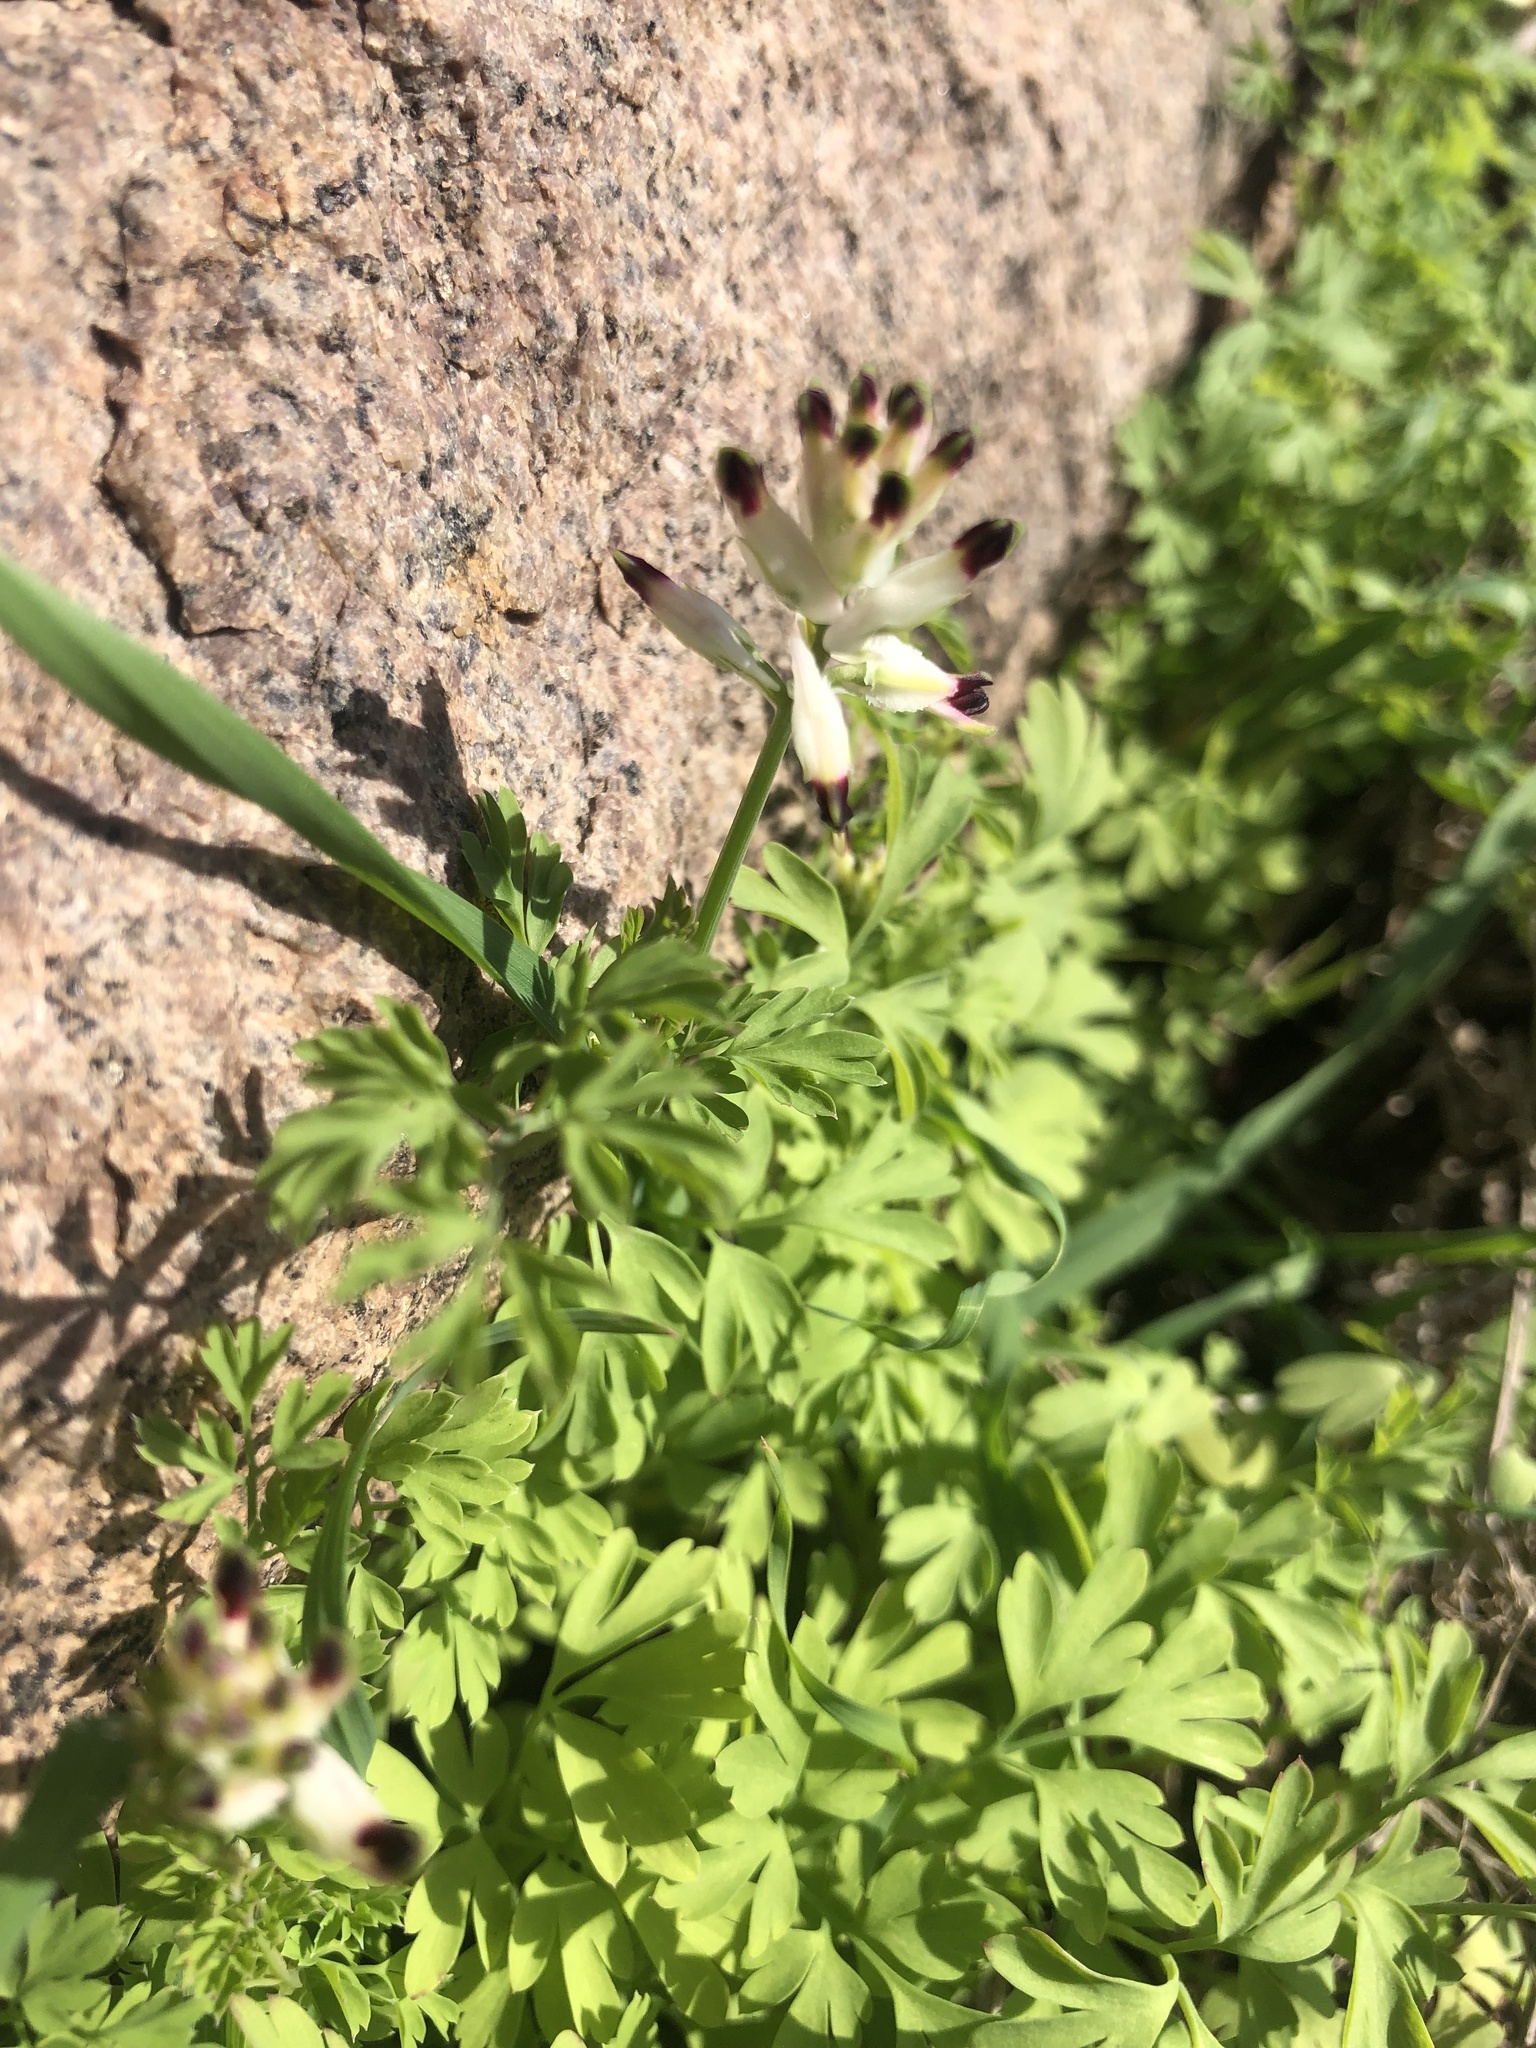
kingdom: Plantae
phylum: Tracheophyta
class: Magnoliopsida
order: Ranunculales
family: Papaveraceae
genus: Fumaria
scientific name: Fumaria capreolata
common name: White ramping-fumitory
